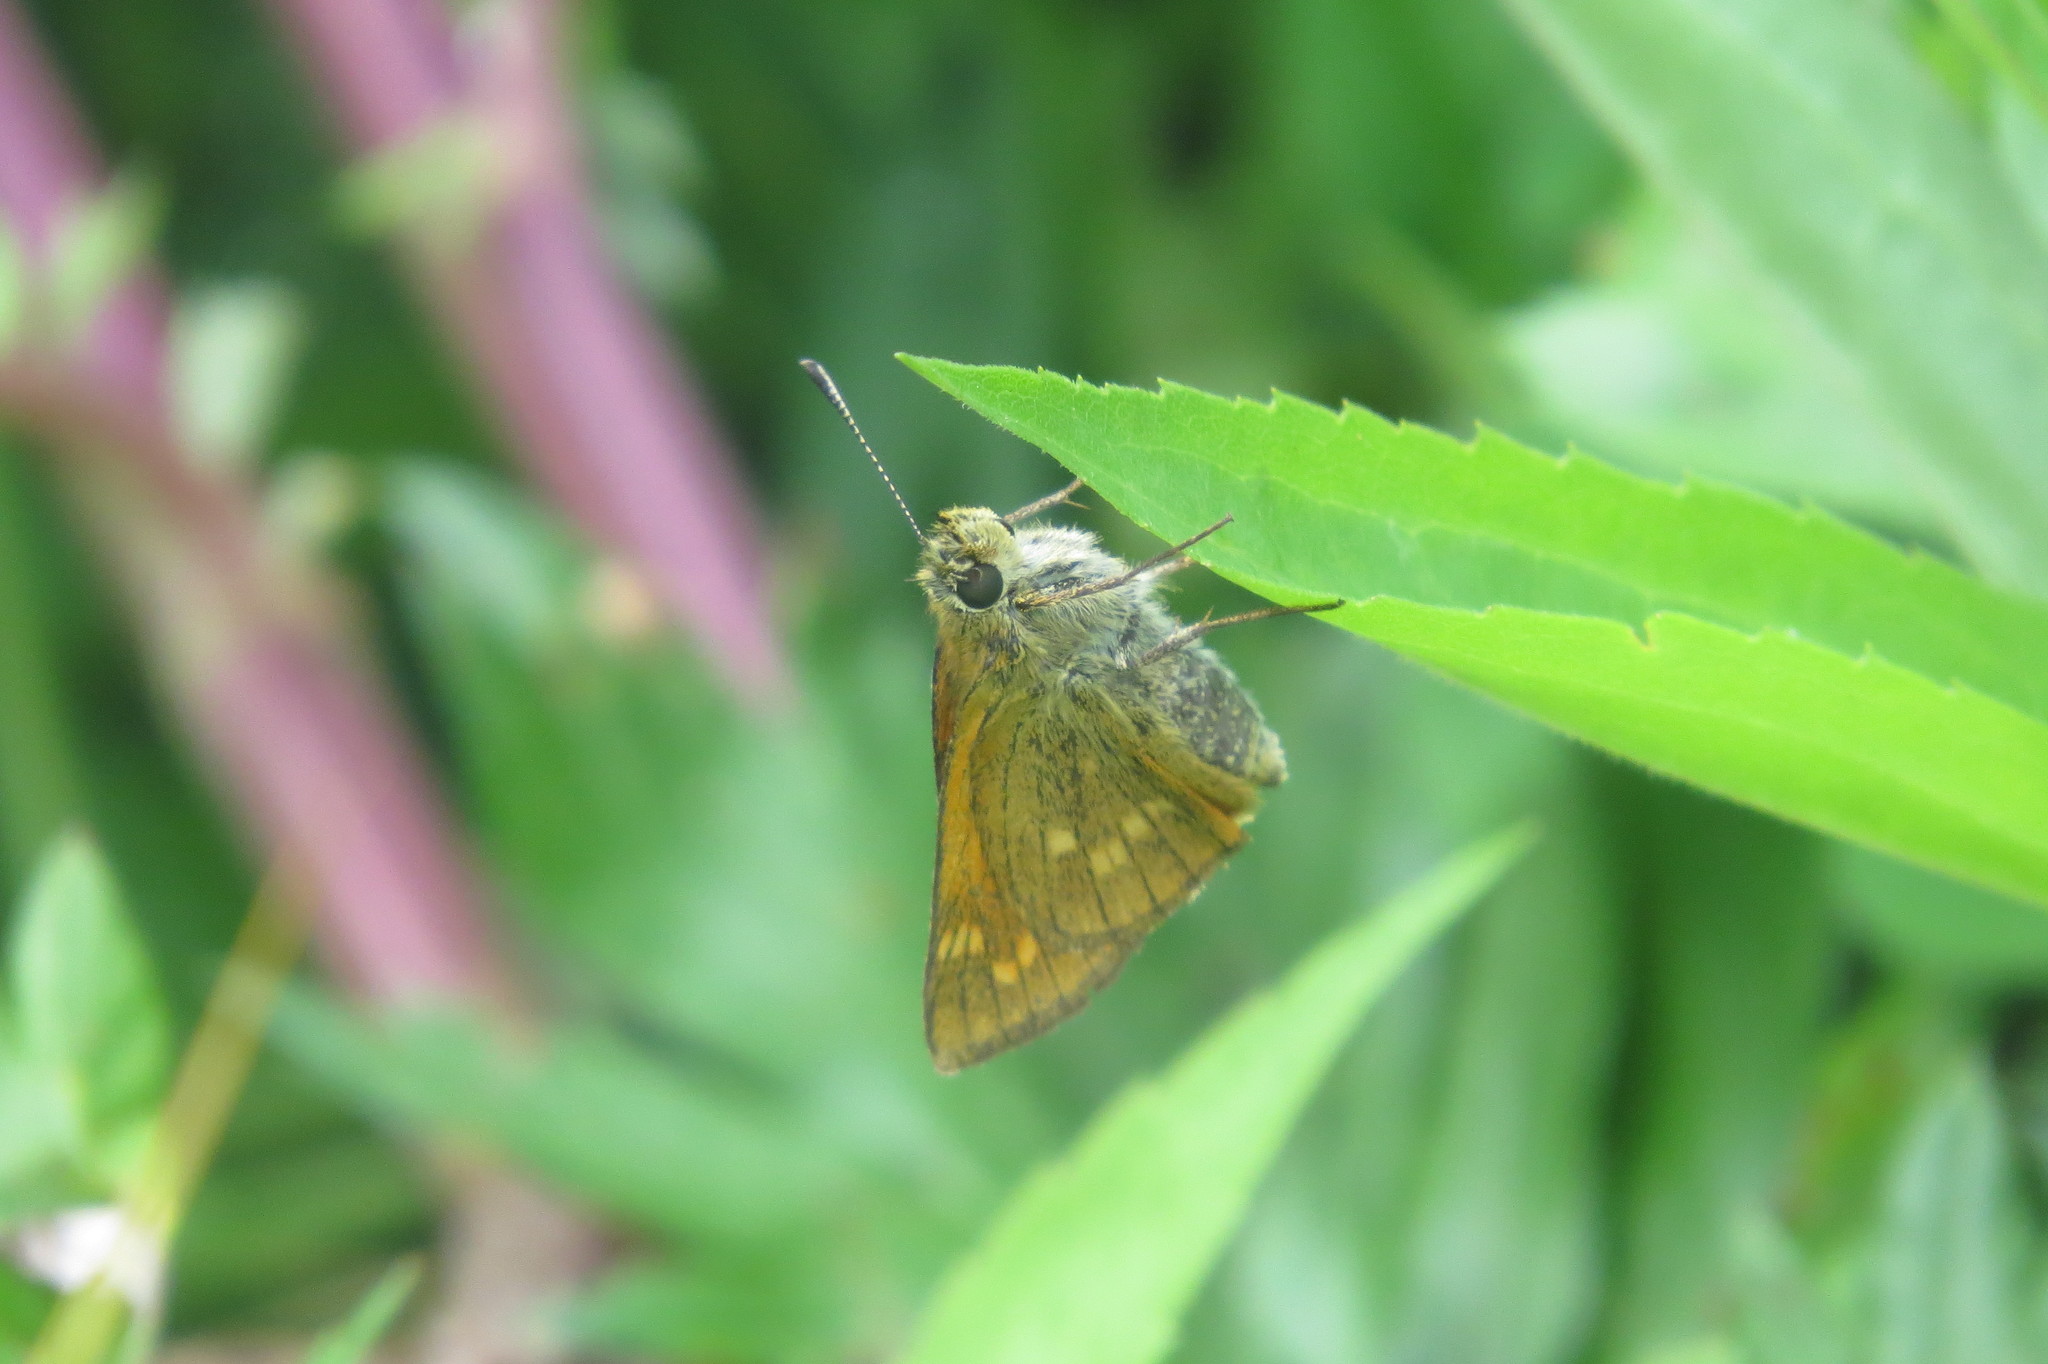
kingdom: Animalia
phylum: Arthropoda
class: Insecta
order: Lepidoptera
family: Hesperiidae
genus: Ochlodes
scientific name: Ochlodes venata
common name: Large skipper
